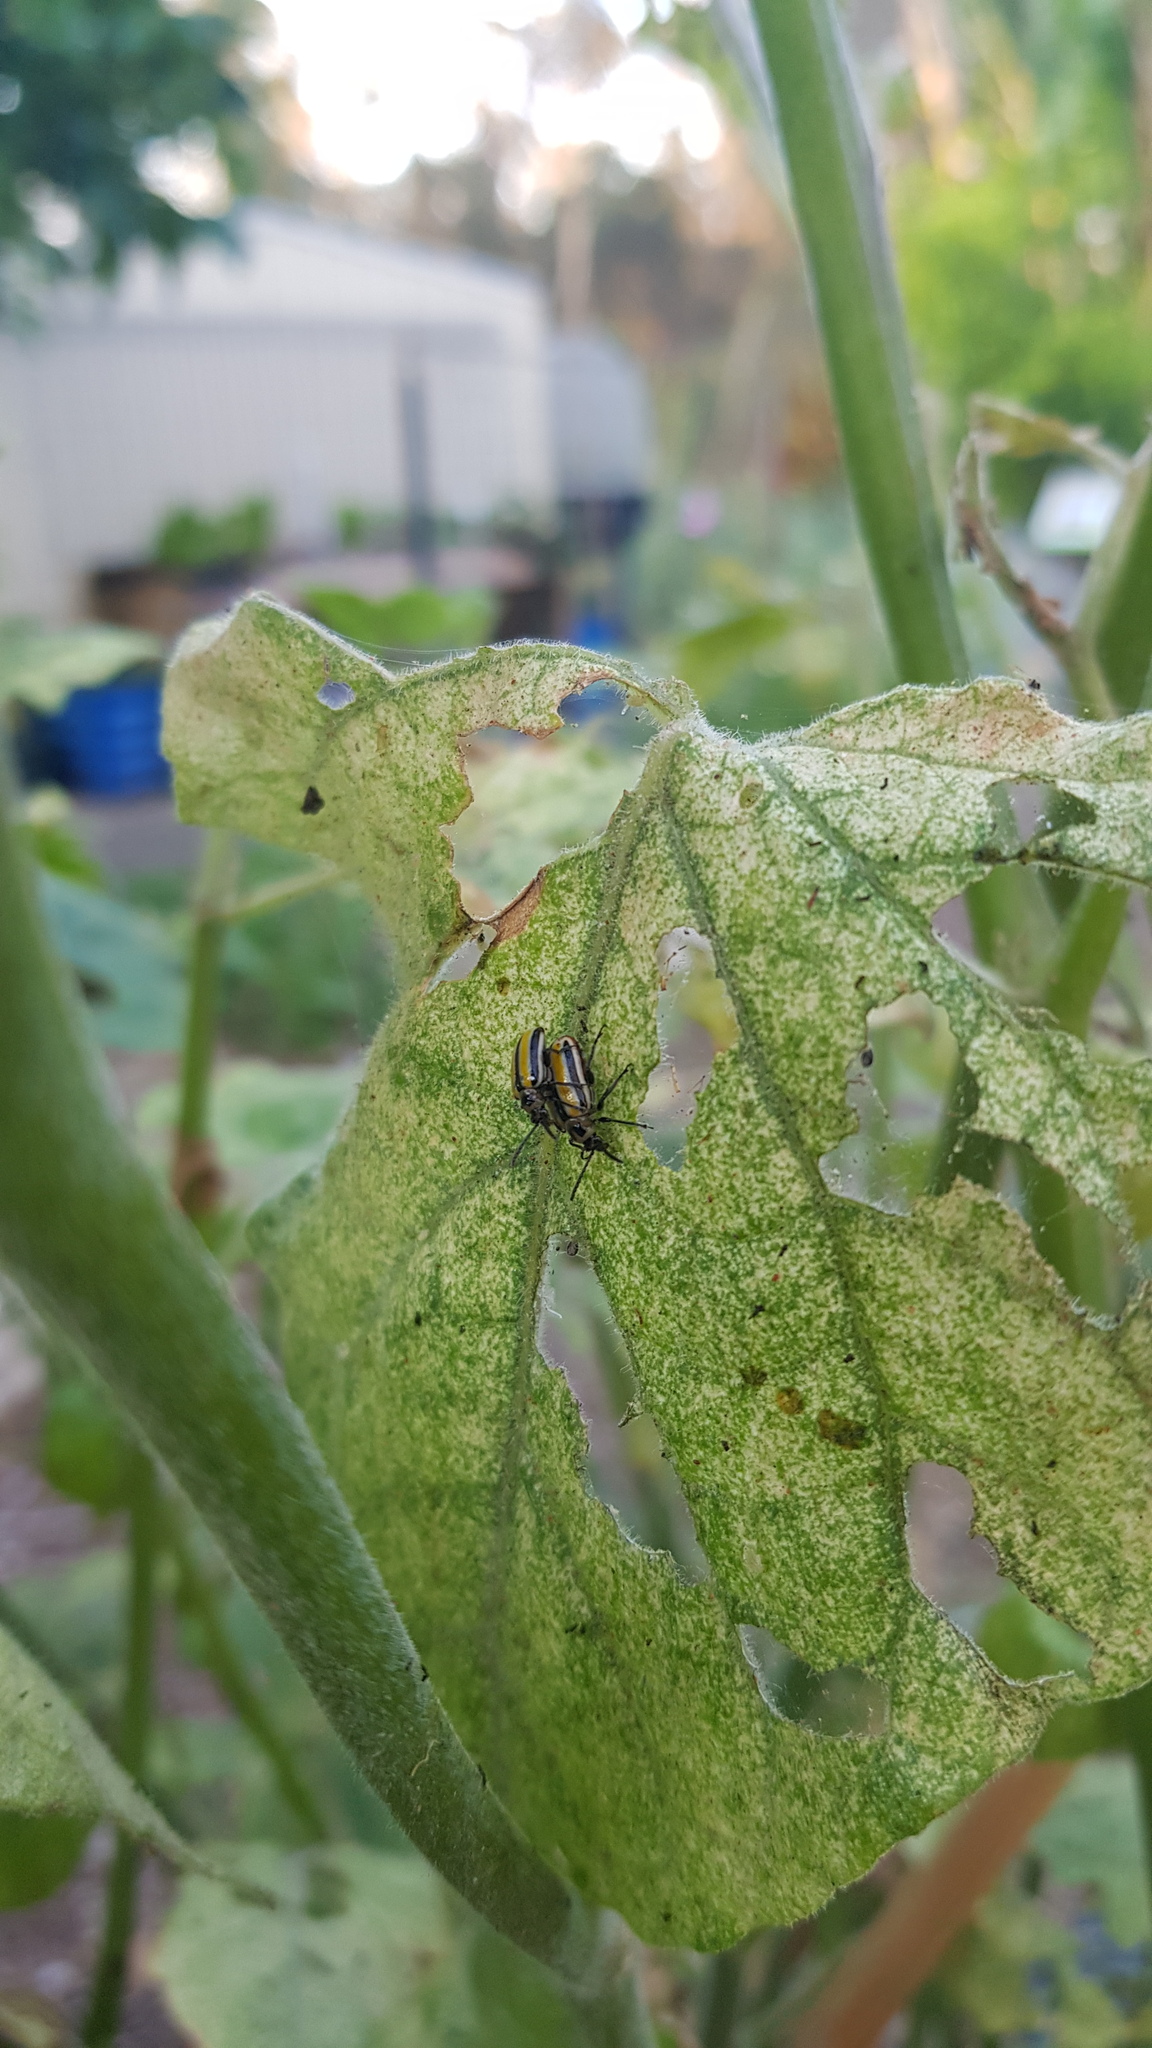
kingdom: Animalia
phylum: Arthropoda
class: Insecta
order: Coleoptera
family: Chrysomelidae
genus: Lema
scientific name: Lema daturaphila
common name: Leaf beetle
